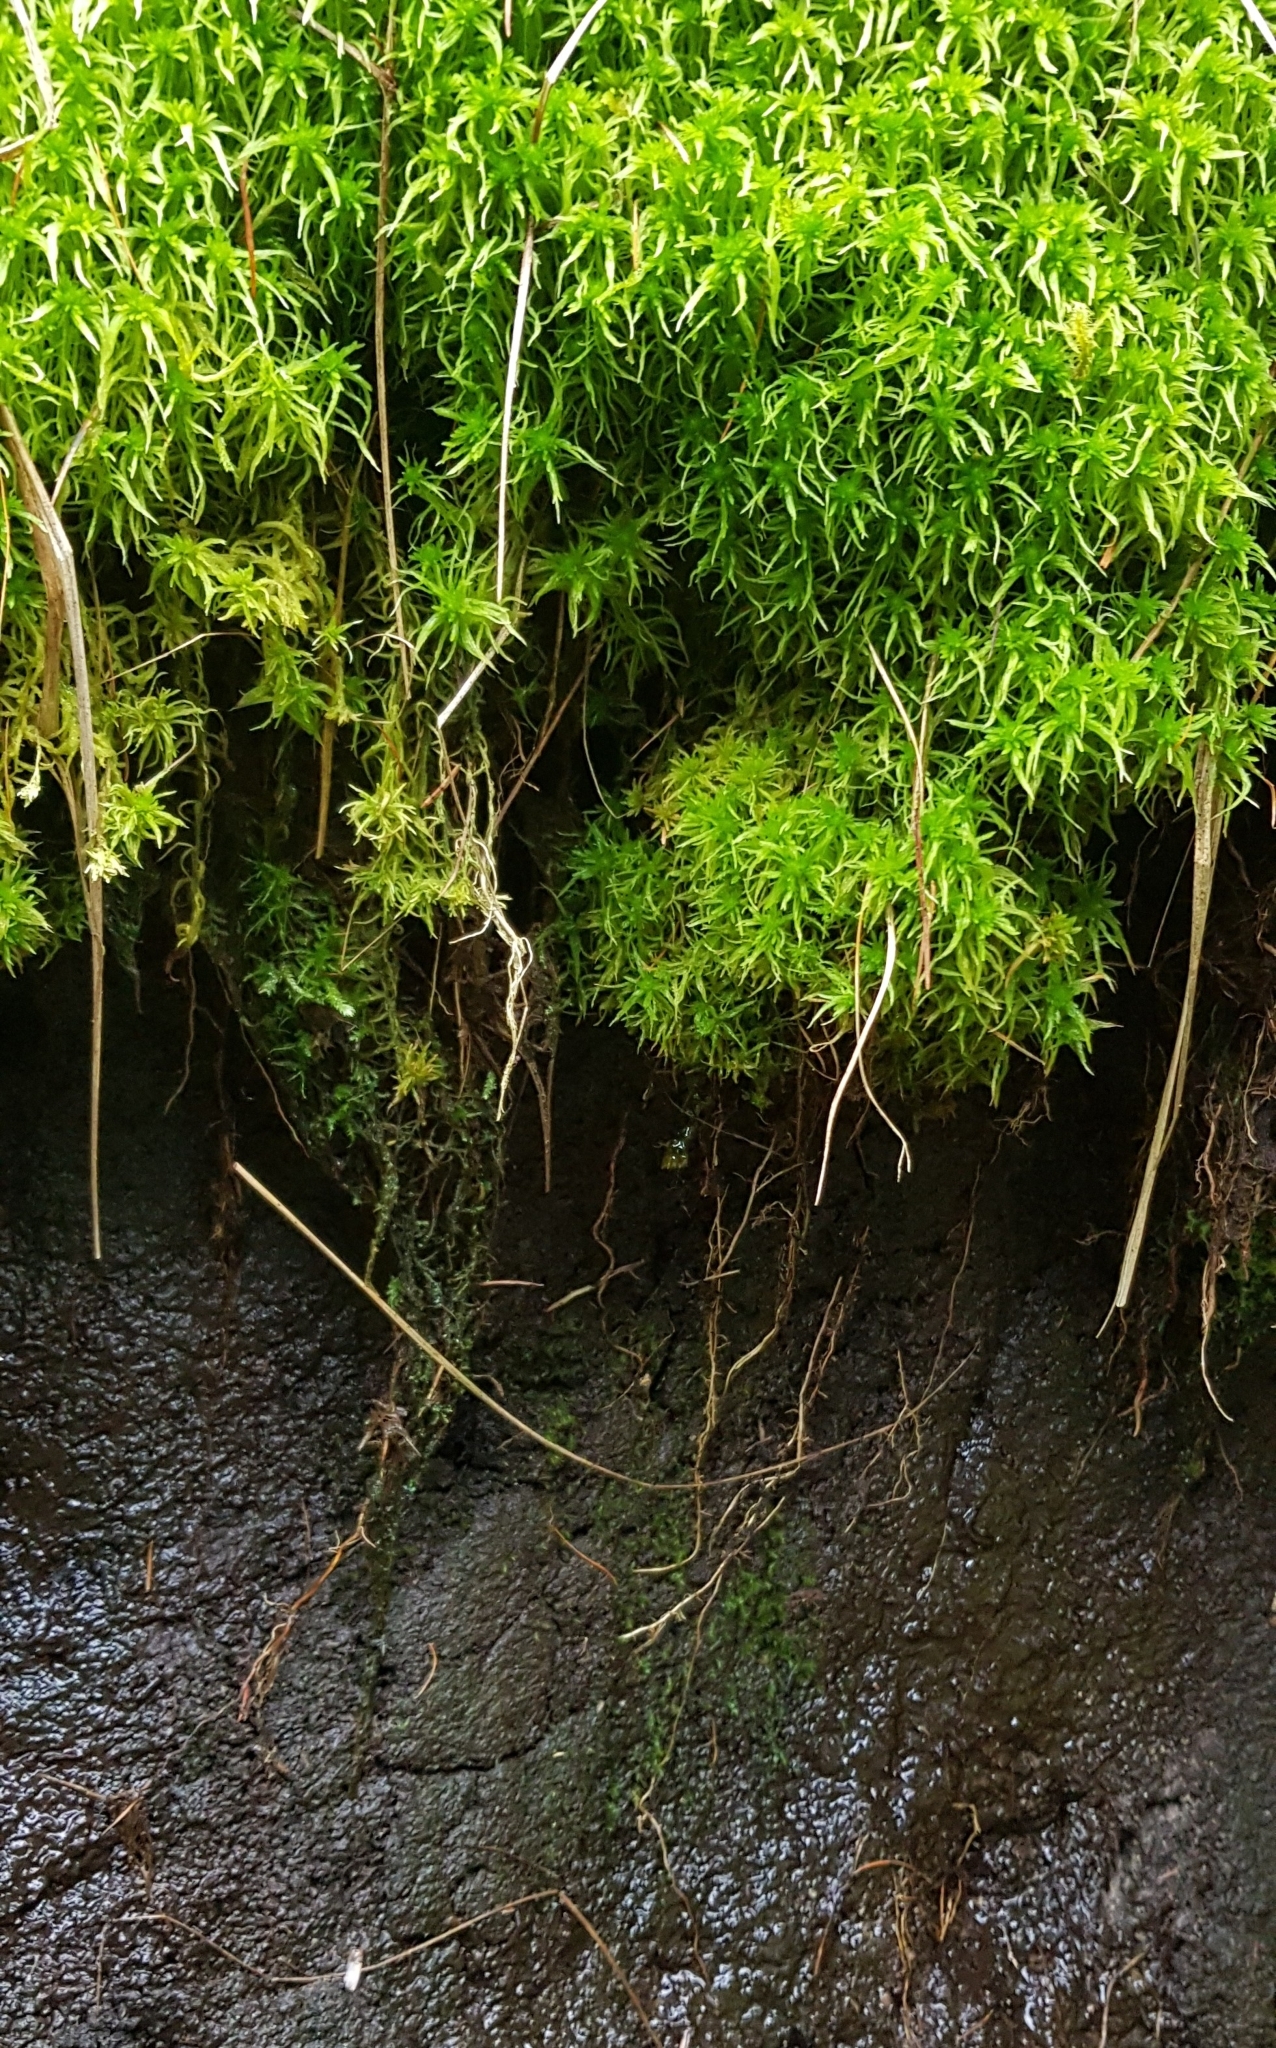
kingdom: Plantae
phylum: Bryophyta
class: Sphagnopsida
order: Sphagnales
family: Sphagnaceae
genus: Sphagnum
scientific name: Sphagnum fimbriatum
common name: Fringed peat moss
